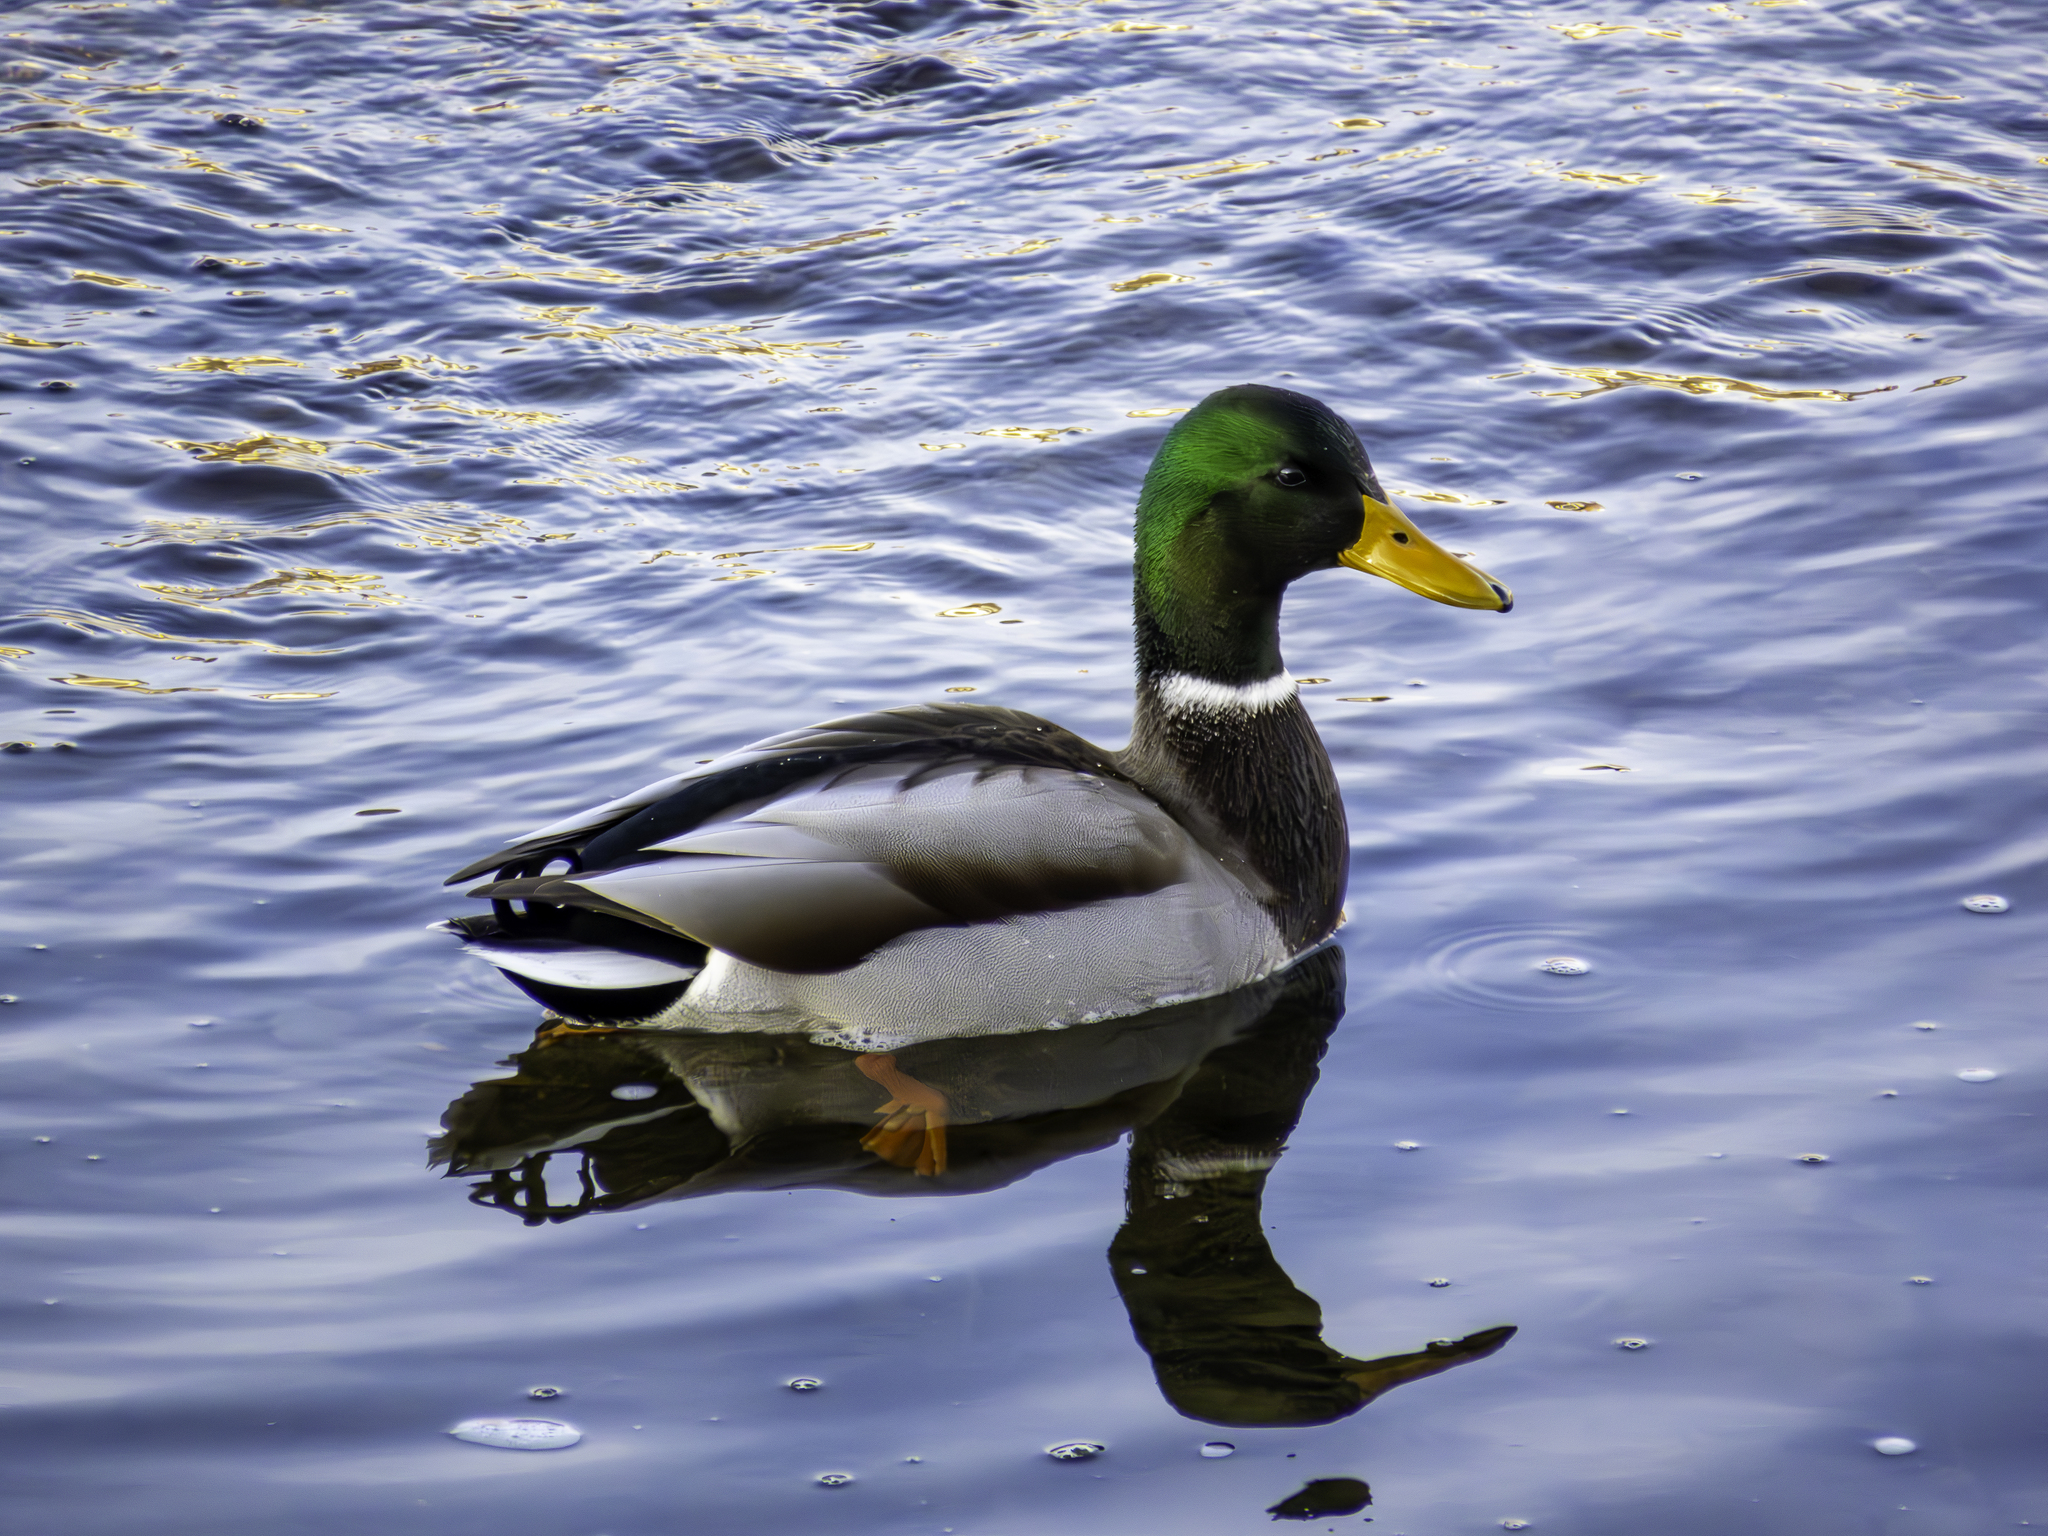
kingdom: Animalia
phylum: Chordata
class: Aves
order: Anseriformes
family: Anatidae
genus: Anas
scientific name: Anas platyrhynchos
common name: Mallard
